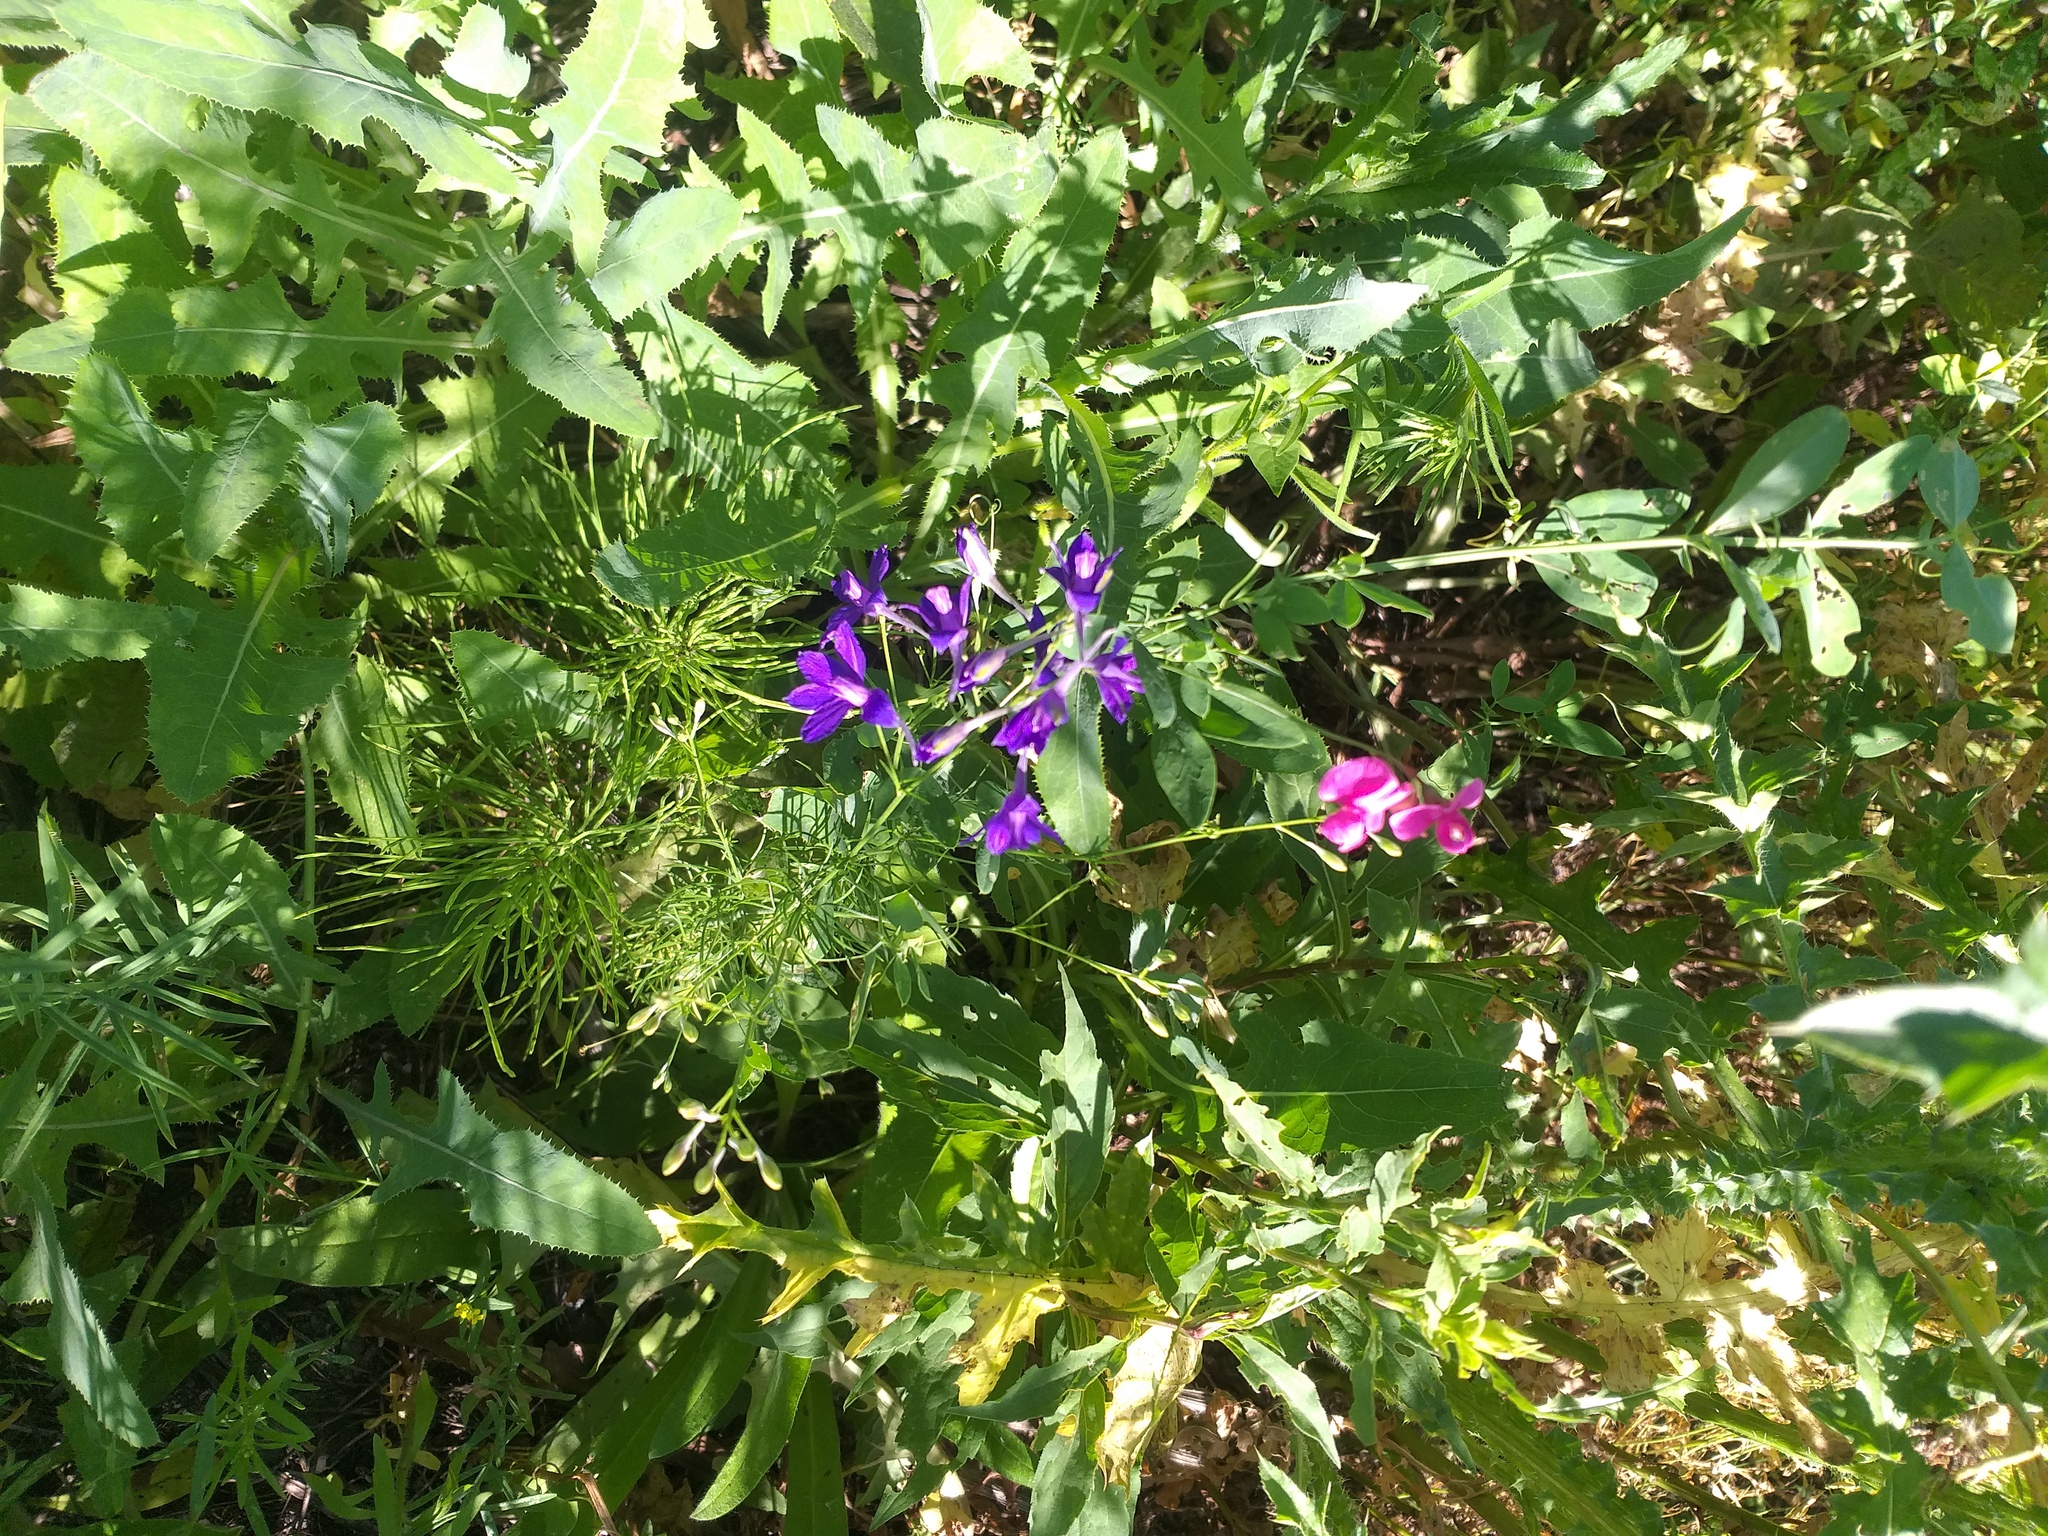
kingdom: Plantae
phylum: Tracheophyta
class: Magnoliopsida
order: Ranunculales
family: Ranunculaceae
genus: Delphinium
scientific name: Delphinium consolida
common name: Branching larkspur
